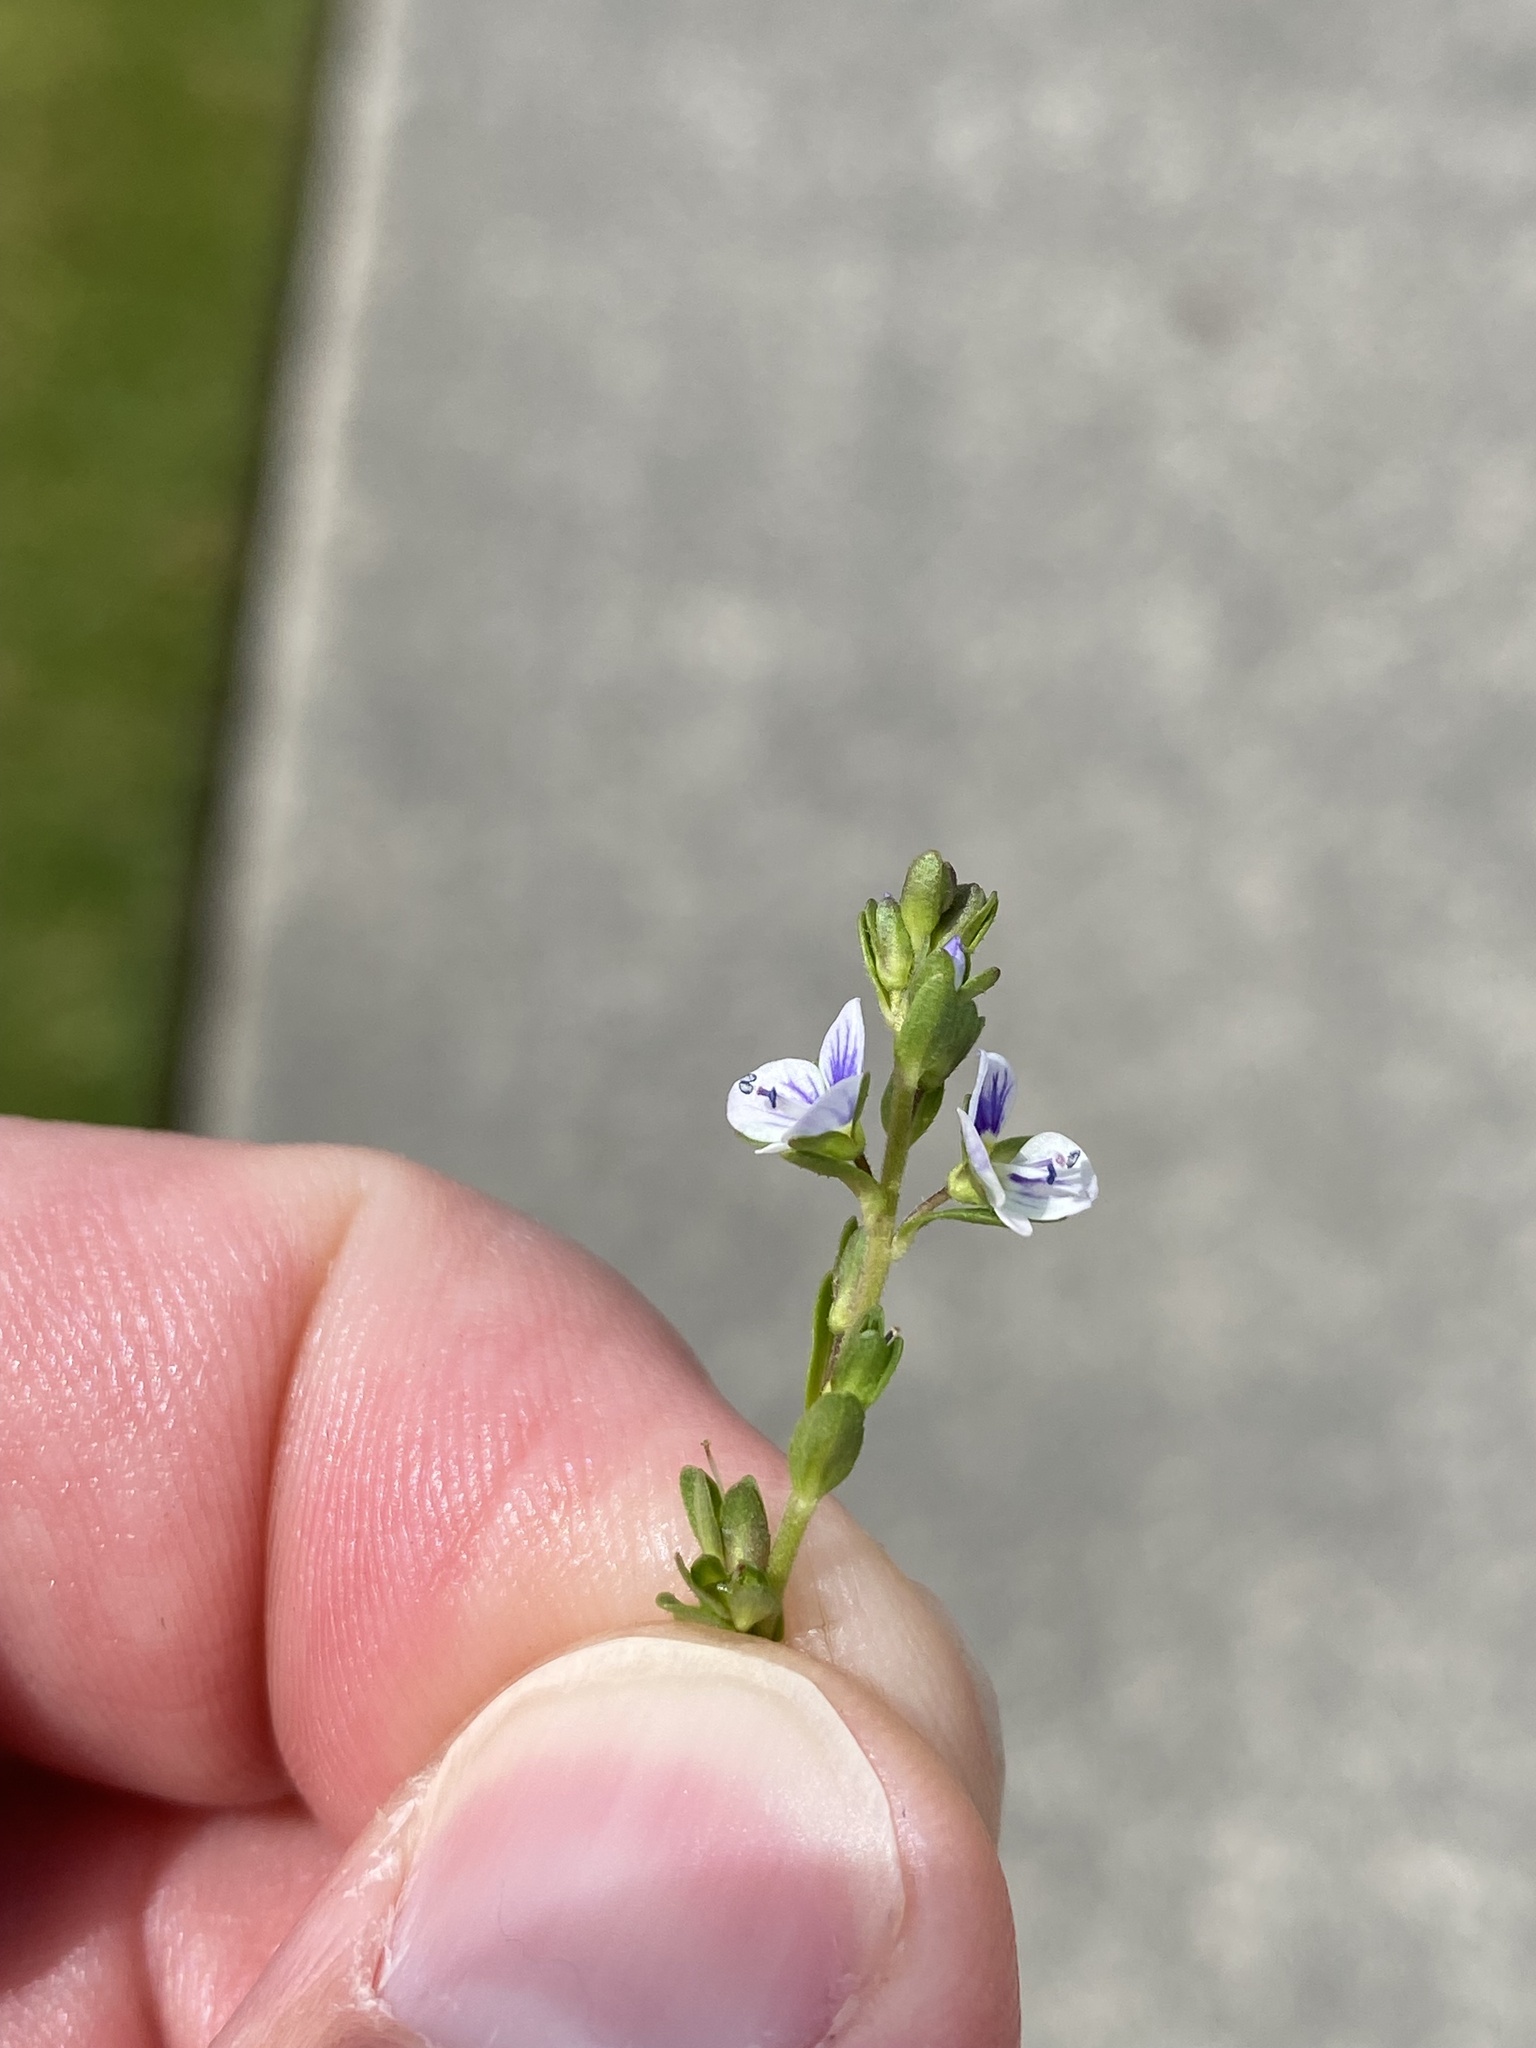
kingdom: Plantae
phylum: Tracheophyta
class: Magnoliopsida
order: Lamiales
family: Plantaginaceae
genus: Veronica
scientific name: Veronica serpyllifolia
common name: Thyme-leaved speedwell
